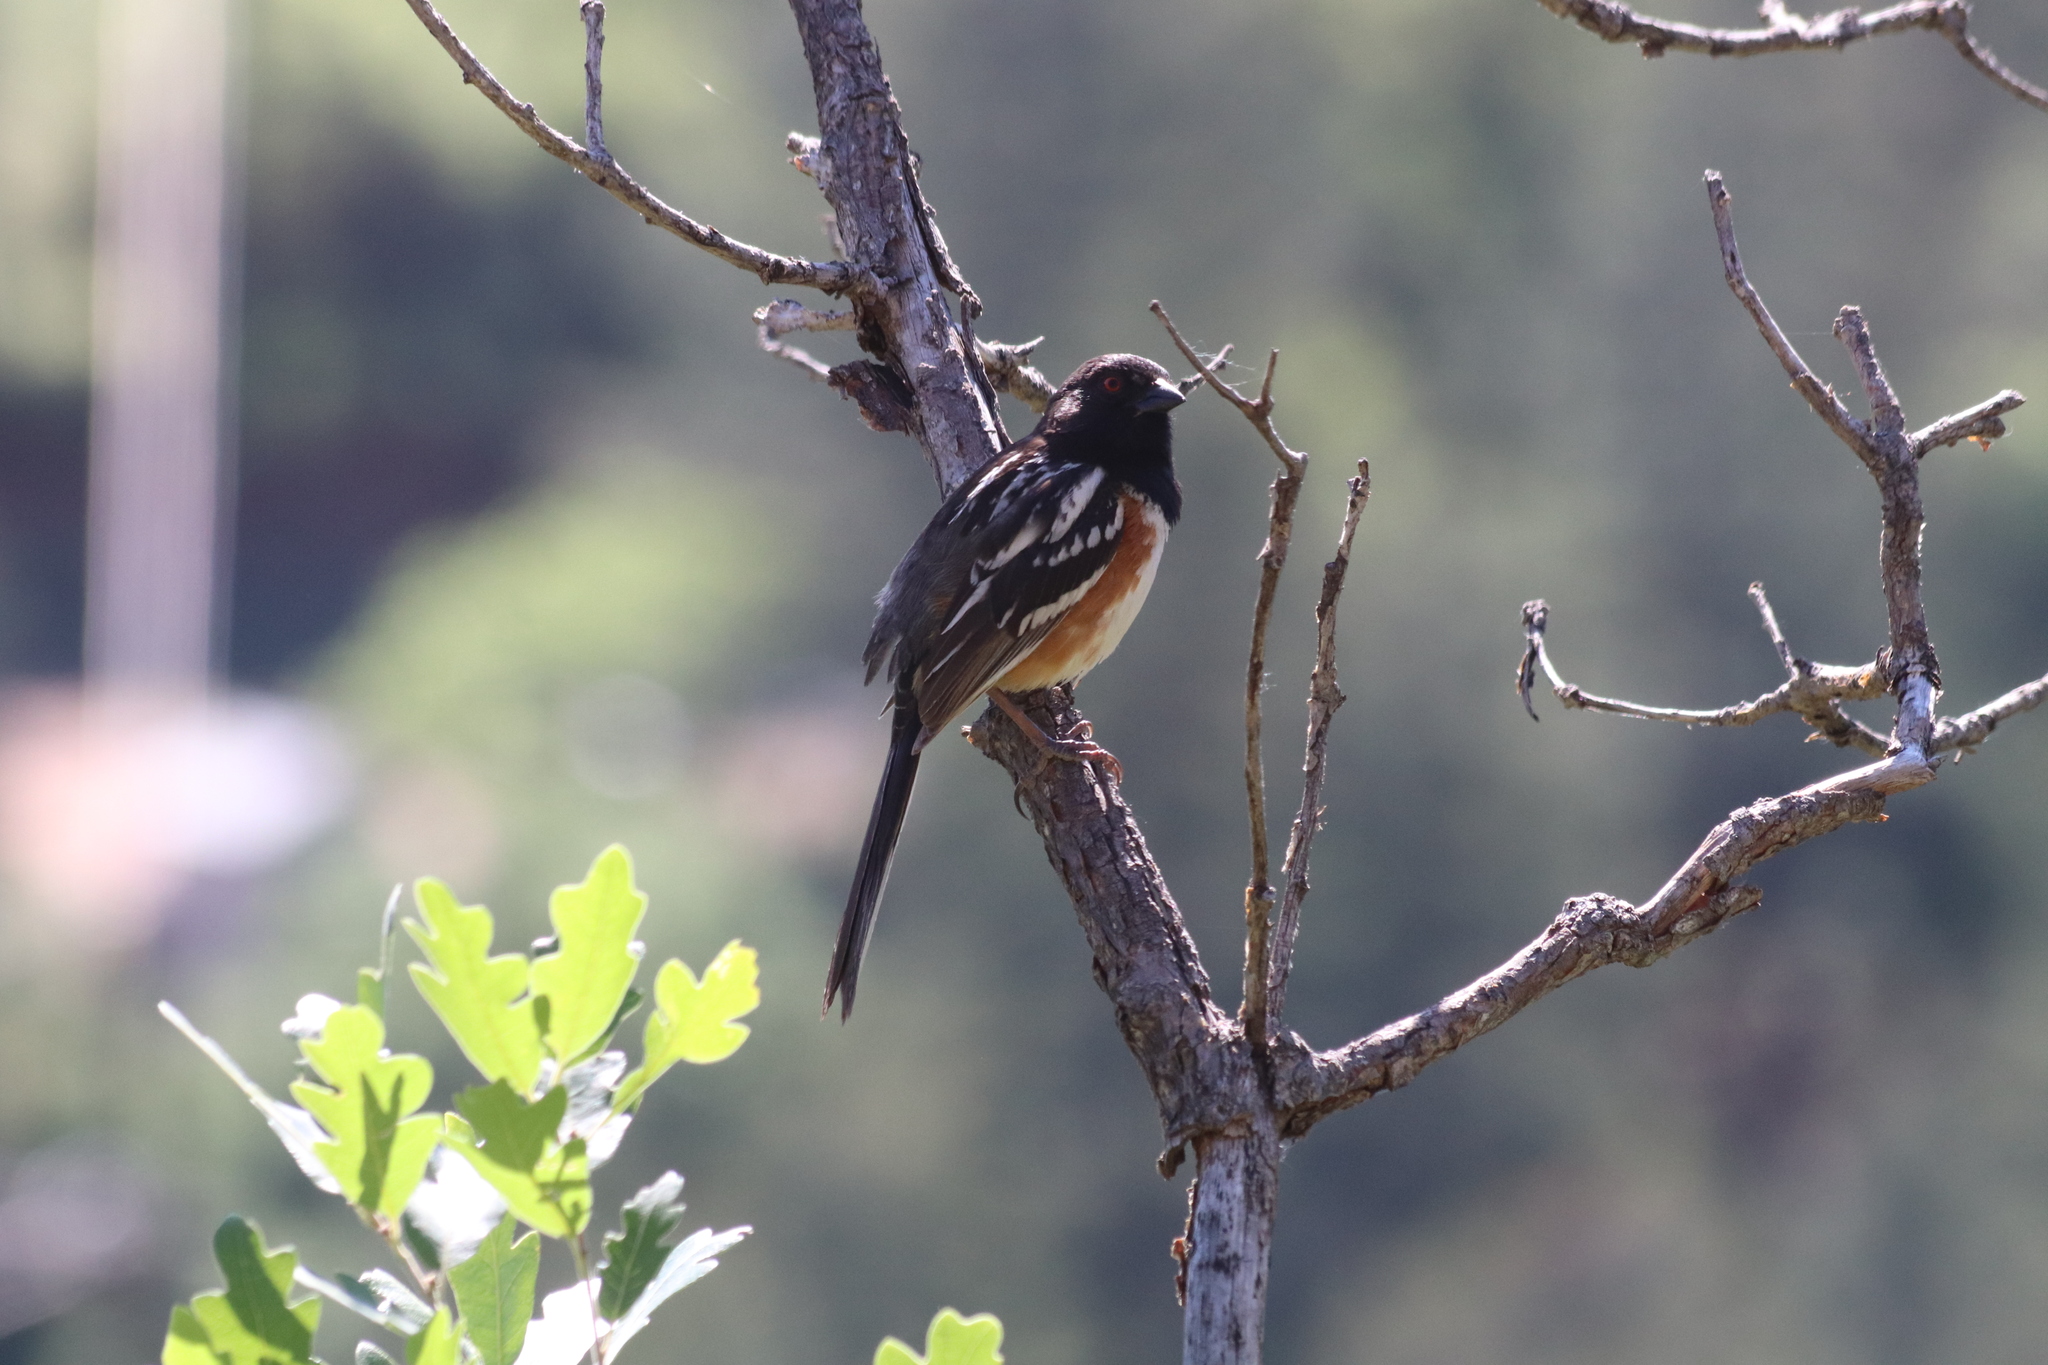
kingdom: Animalia
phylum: Chordata
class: Aves
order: Passeriformes
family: Passerellidae
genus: Pipilo
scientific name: Pipilo maculatus
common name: Spotted towhee
